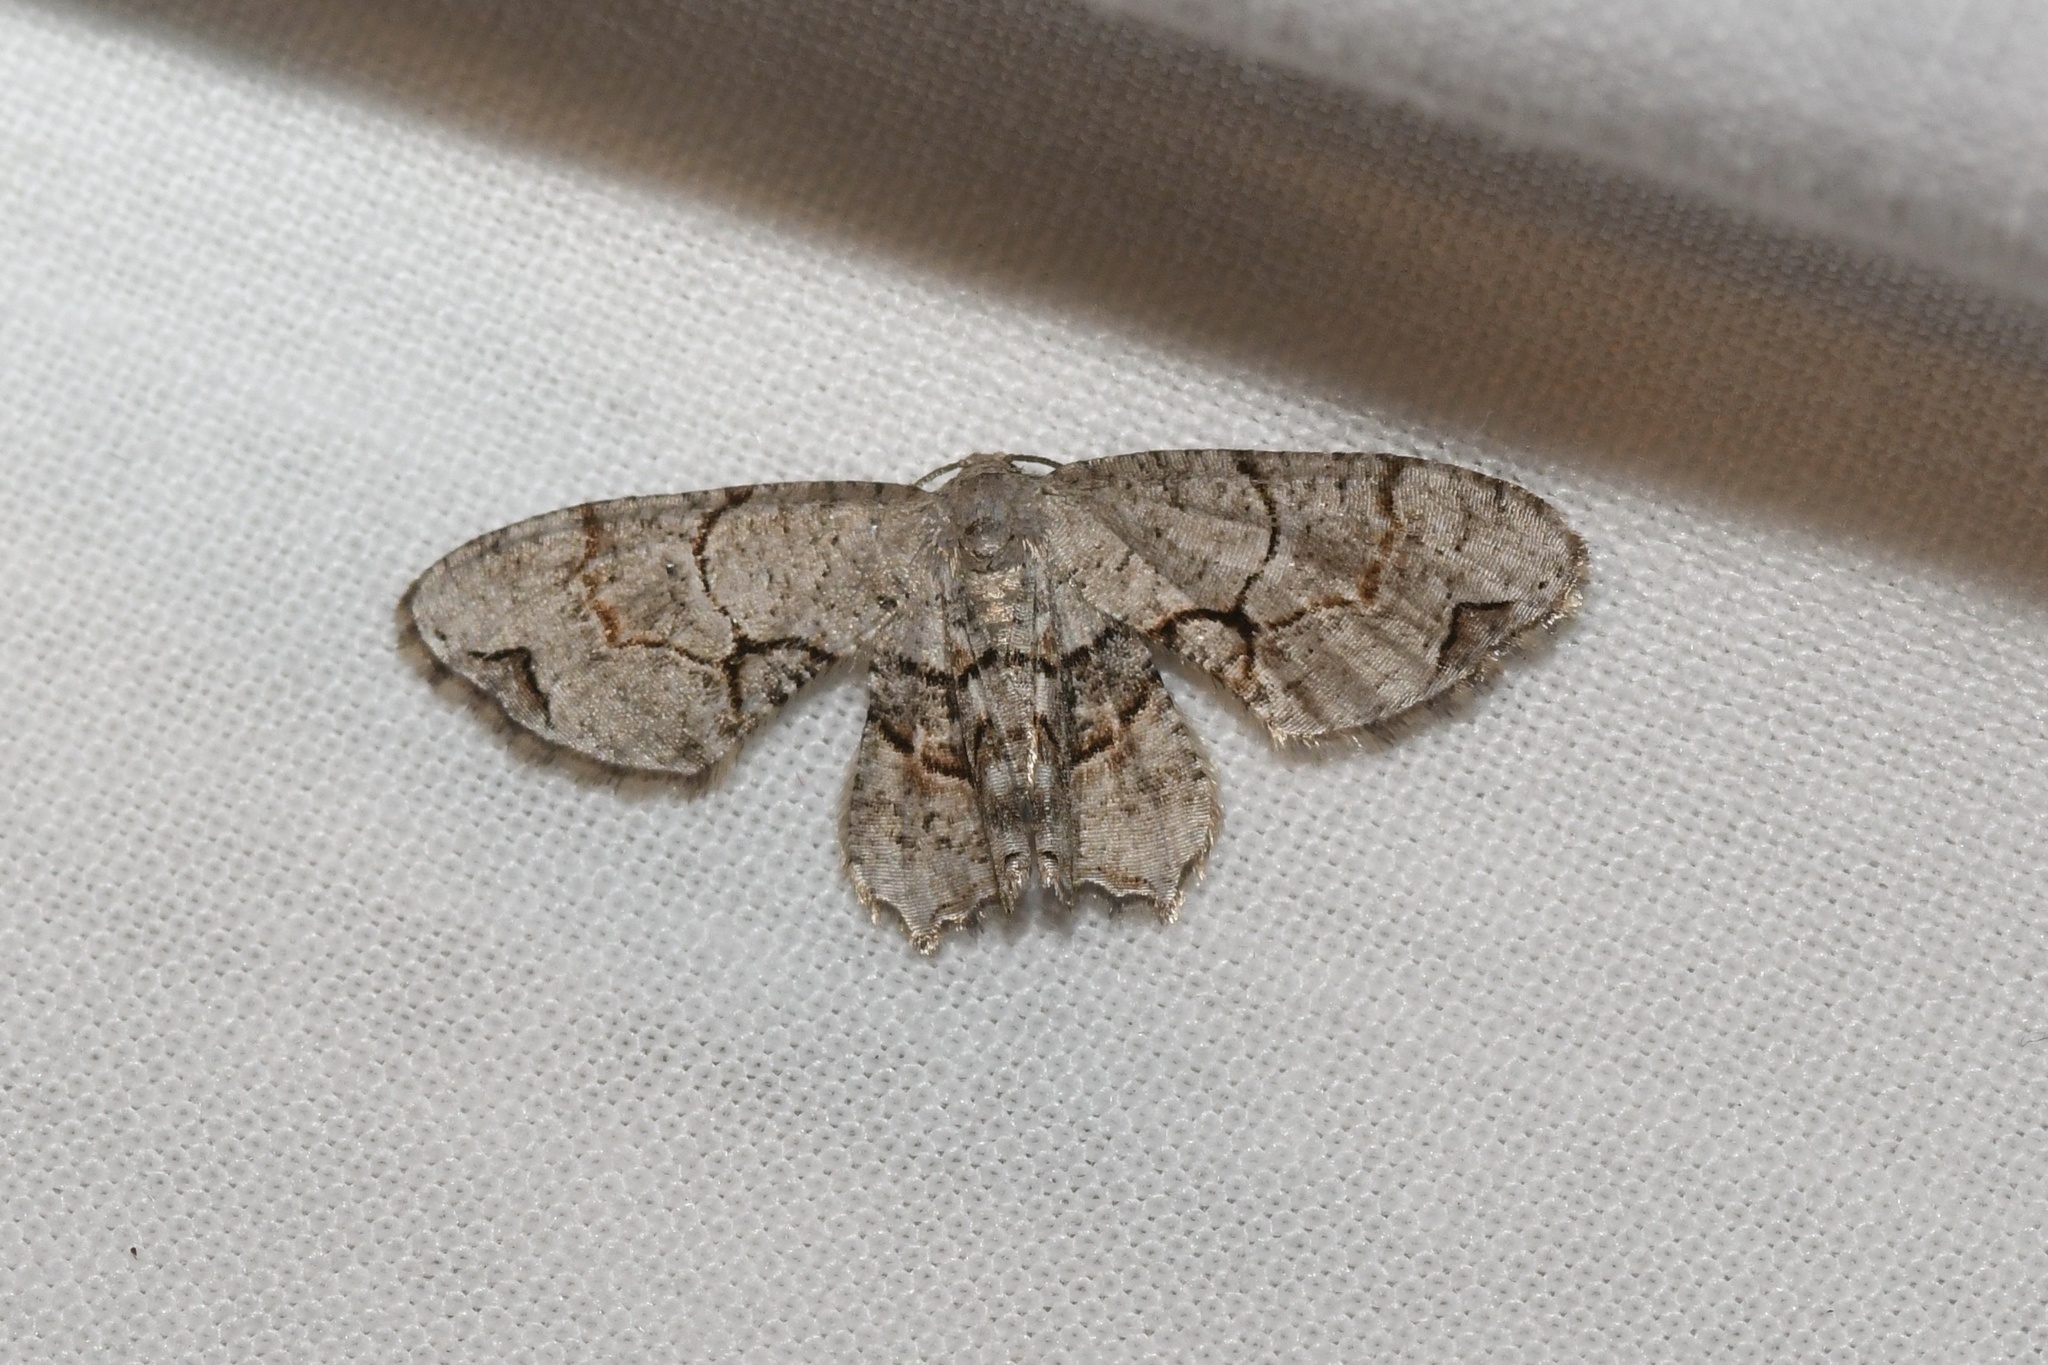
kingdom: Animalia
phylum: Arthropoda
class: Insecta
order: Lepidoptera
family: Uraniidae
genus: Epiplema
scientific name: Epiplema Callizzia amorata
